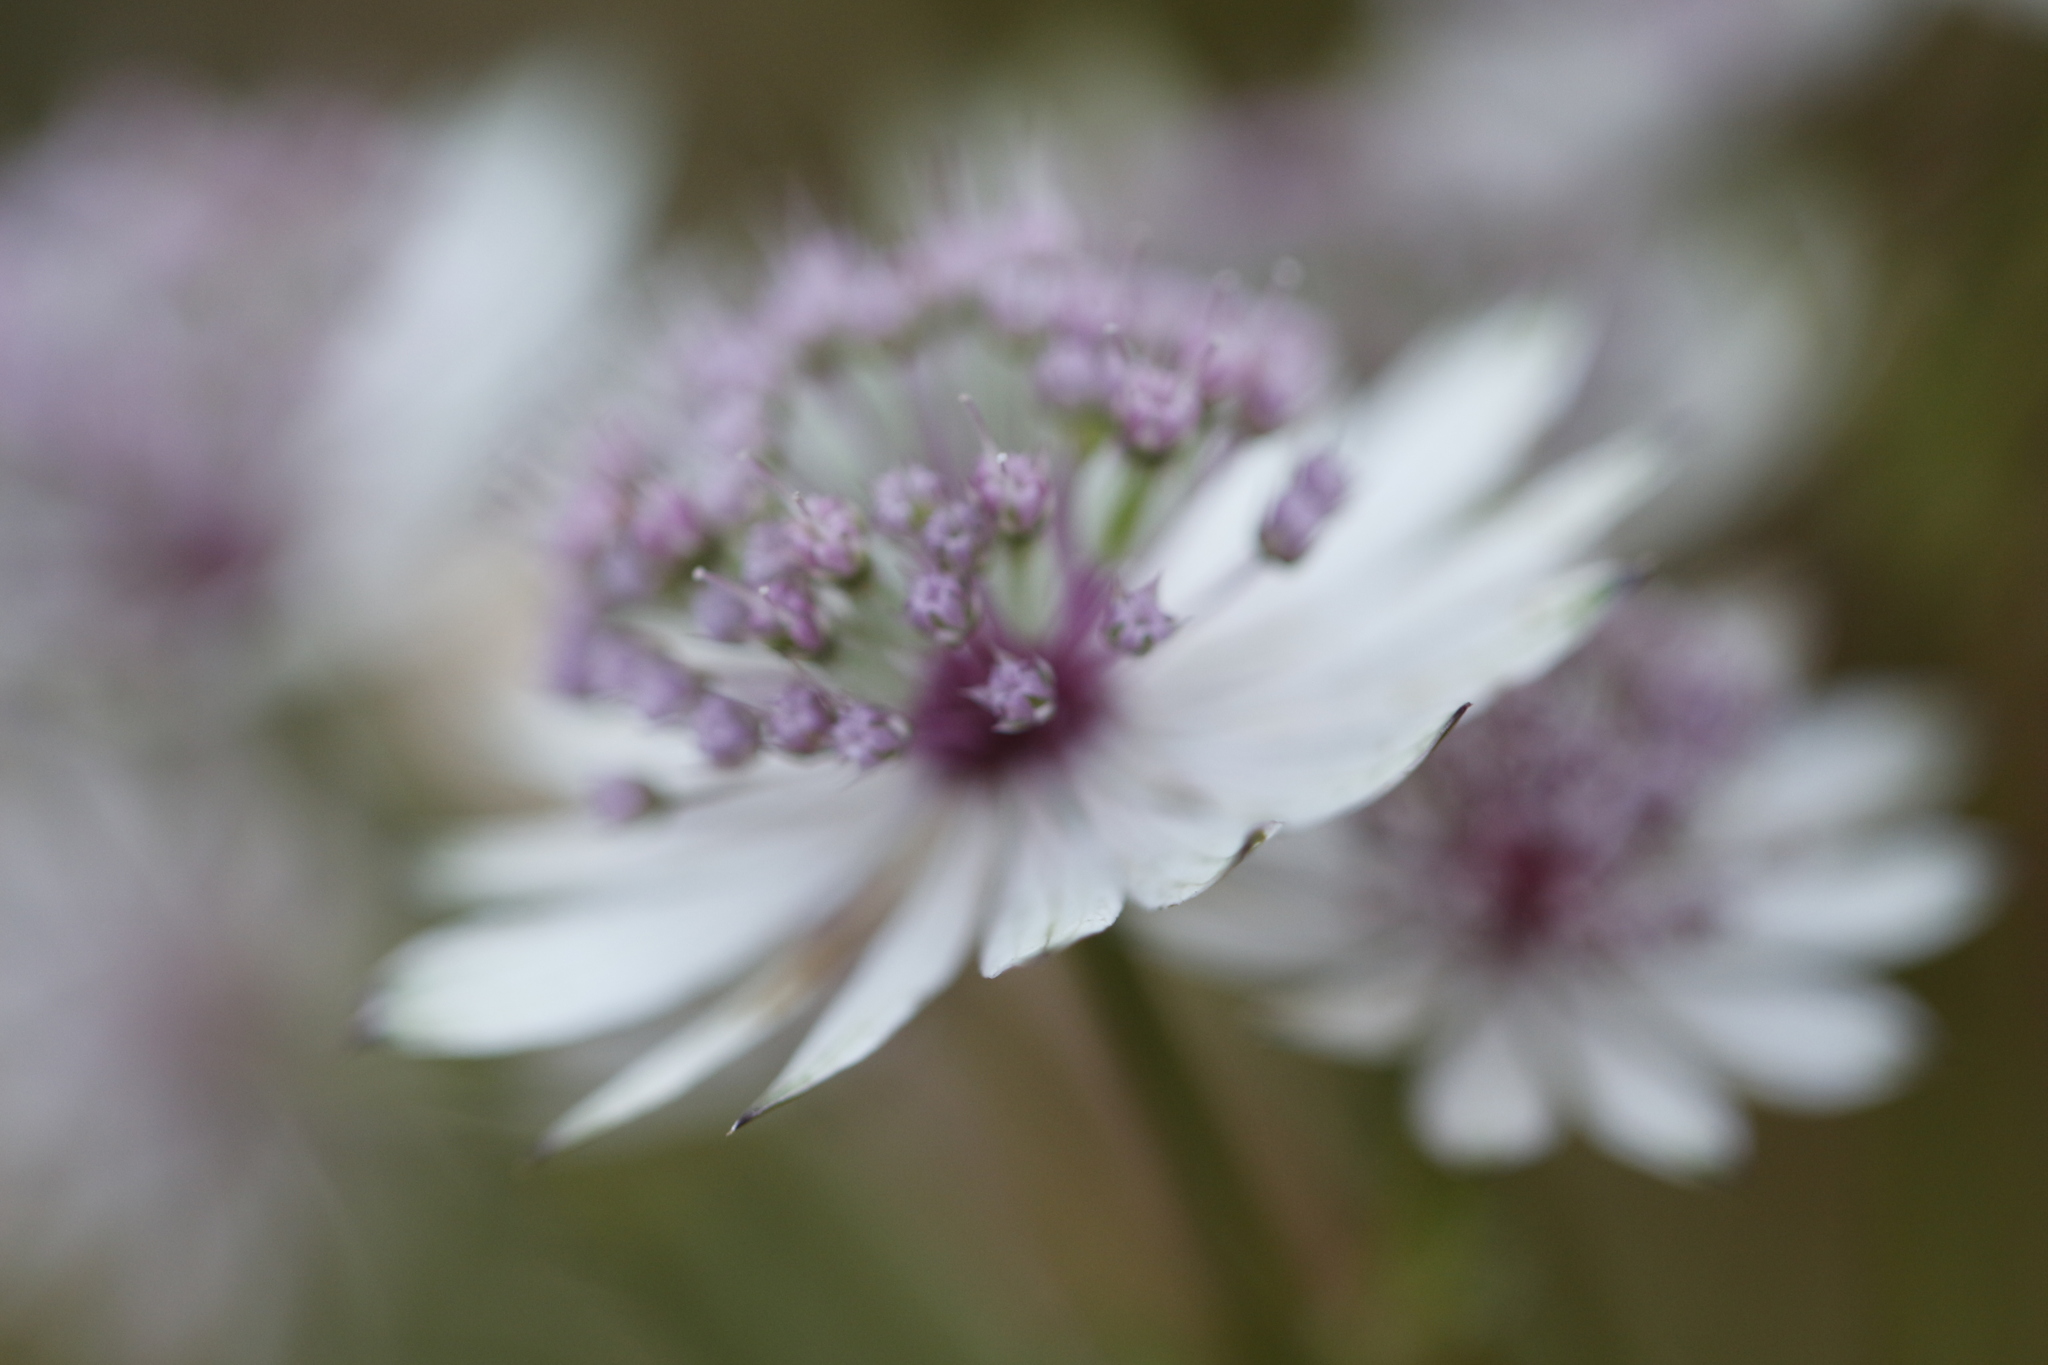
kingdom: Plantae
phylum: Tracheophyta
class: Magnoliopsida
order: Apiales
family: Apiaceae
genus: Astrantia
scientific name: Astrantia major
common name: Greater masterwort
